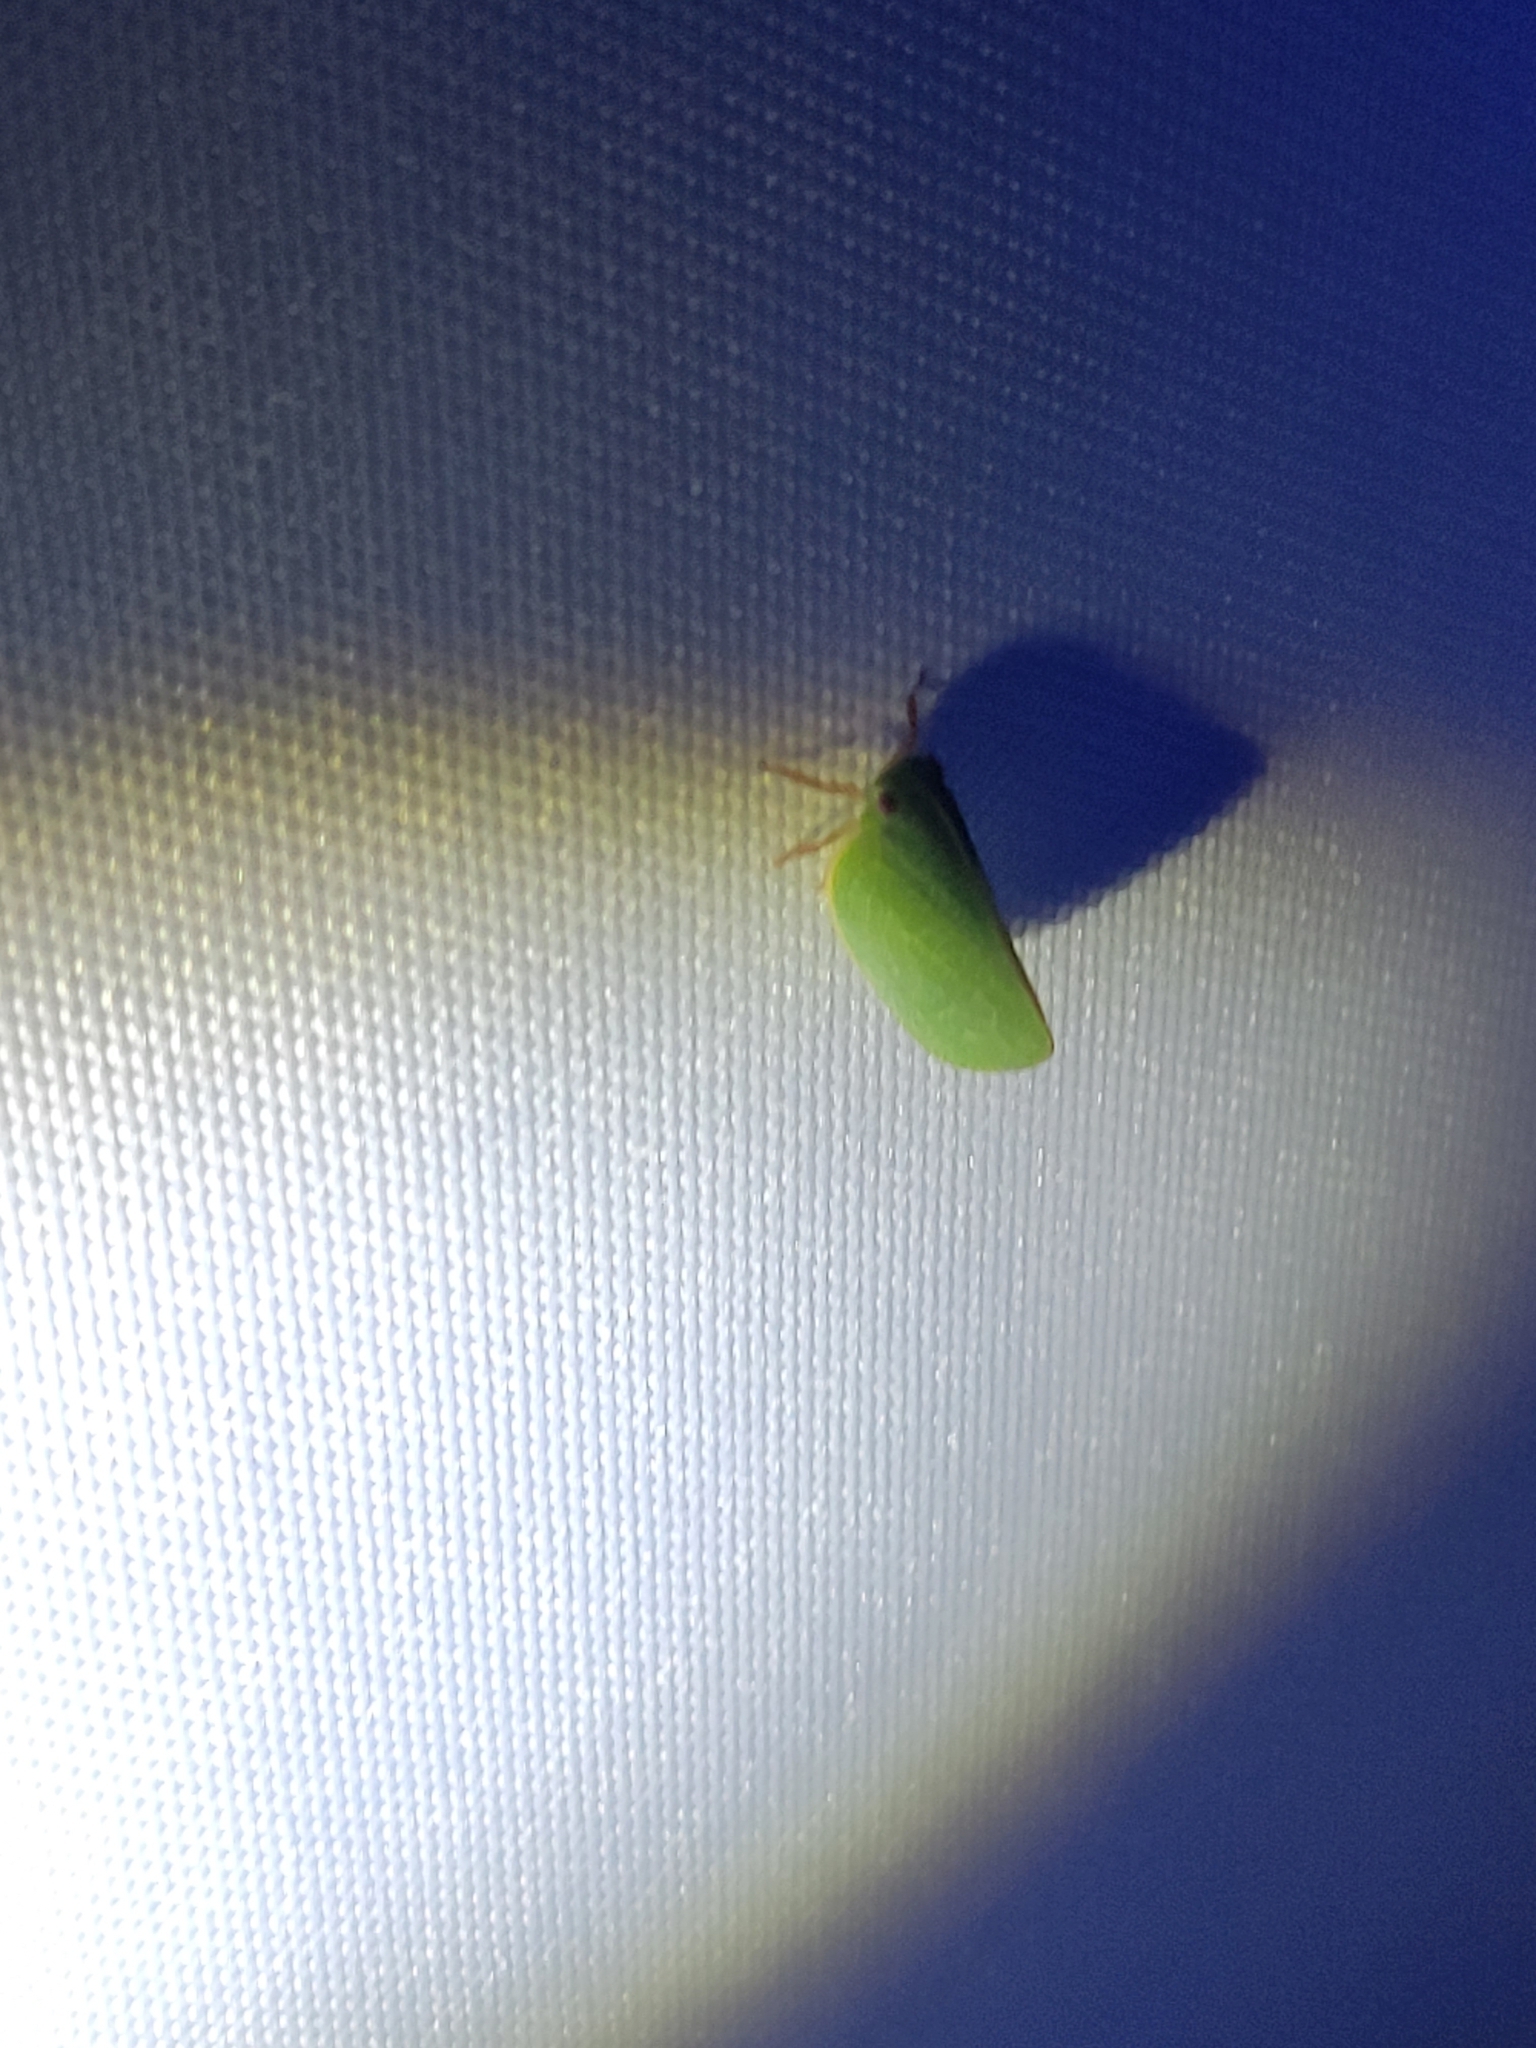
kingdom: Animalia
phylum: Arthropoda
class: Insecta
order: Hemiptera
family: Acanaloniidae
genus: Acanalonia
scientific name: Acanalonia servillei
